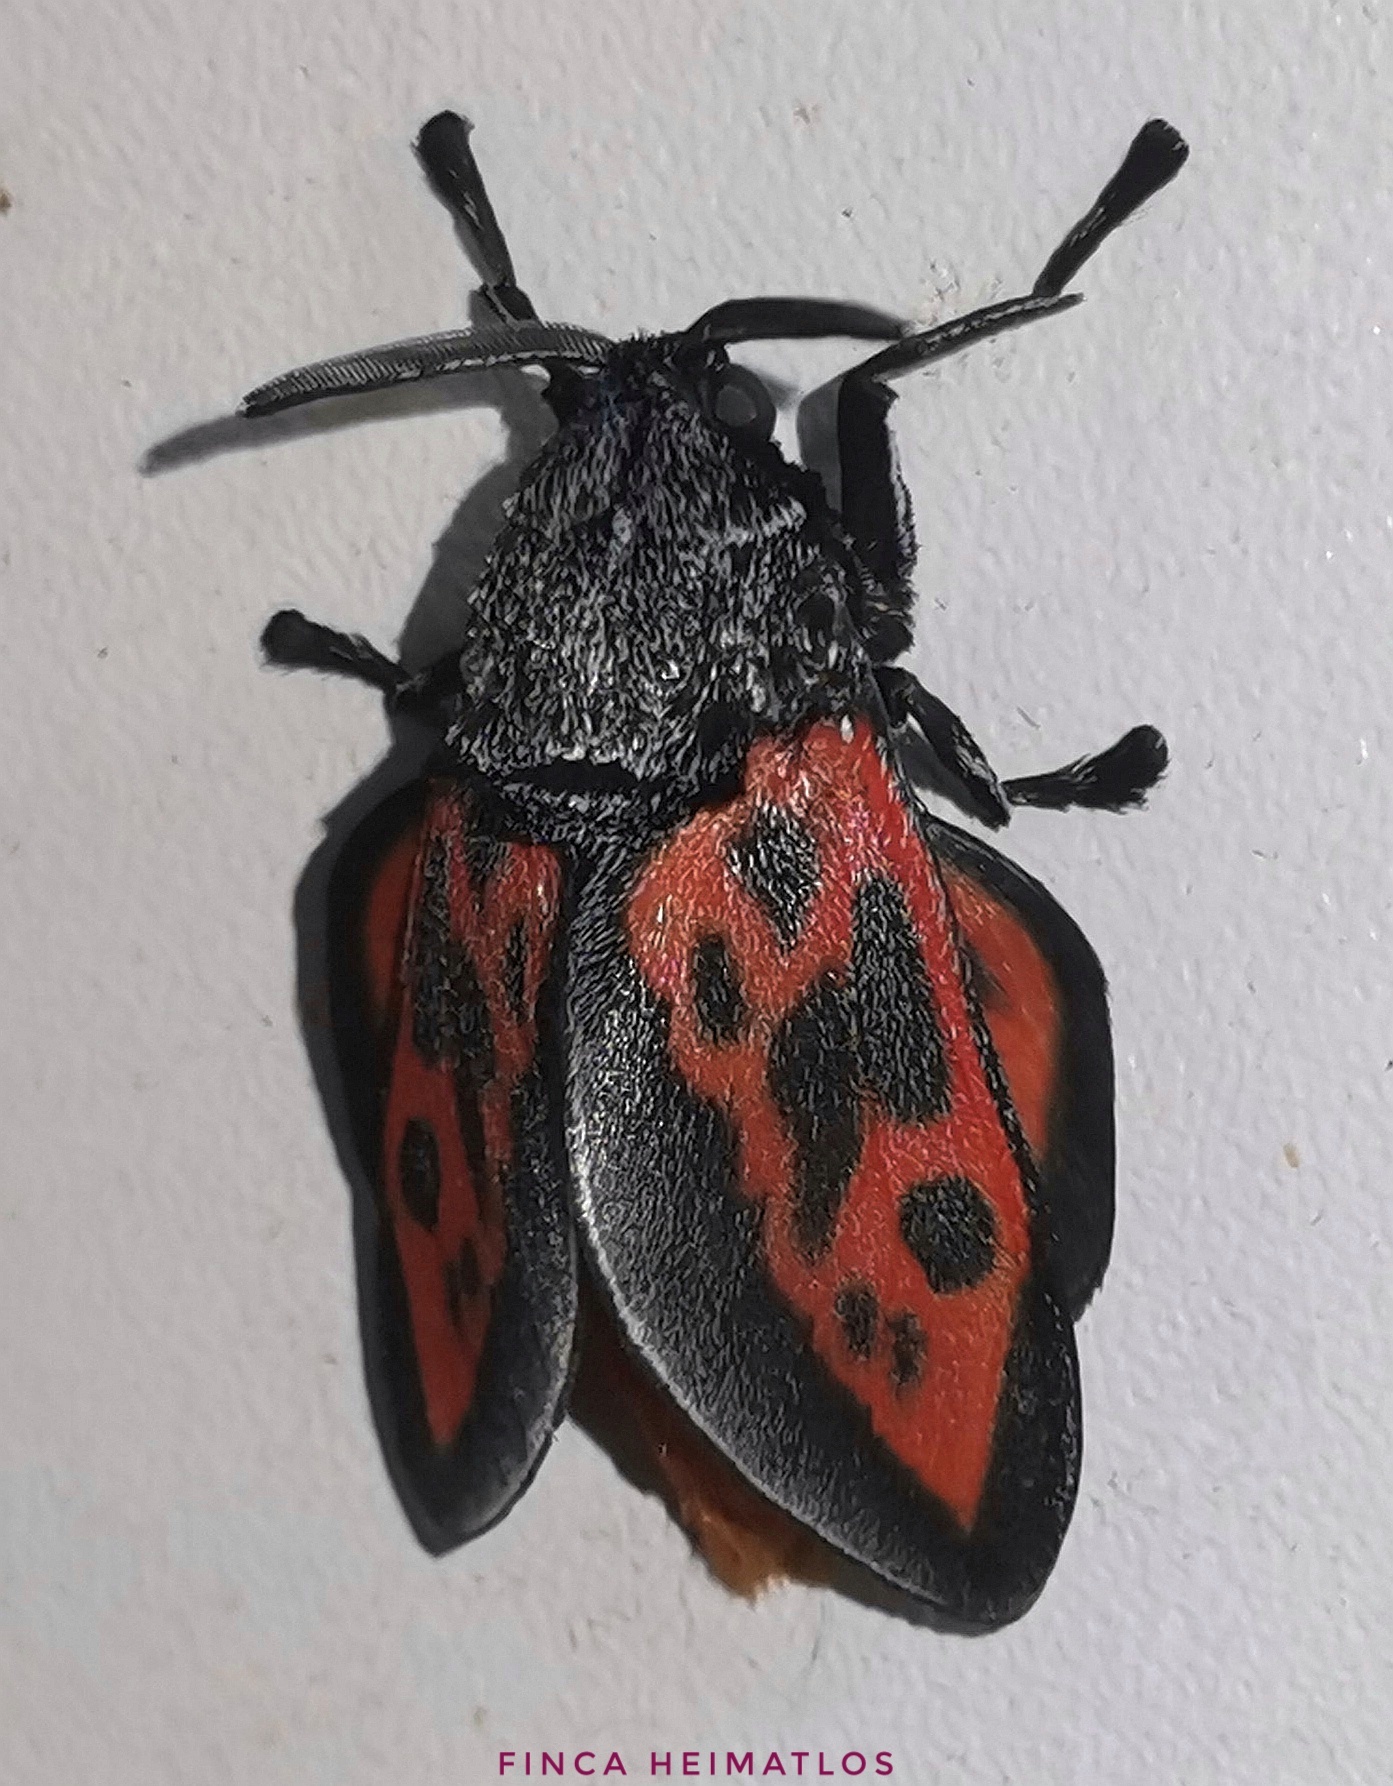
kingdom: Animalia
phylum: Arthropoda
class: Insecta
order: Lepidoptera
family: Megalopygidae
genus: Langucys
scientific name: Langucys nigrorufus
